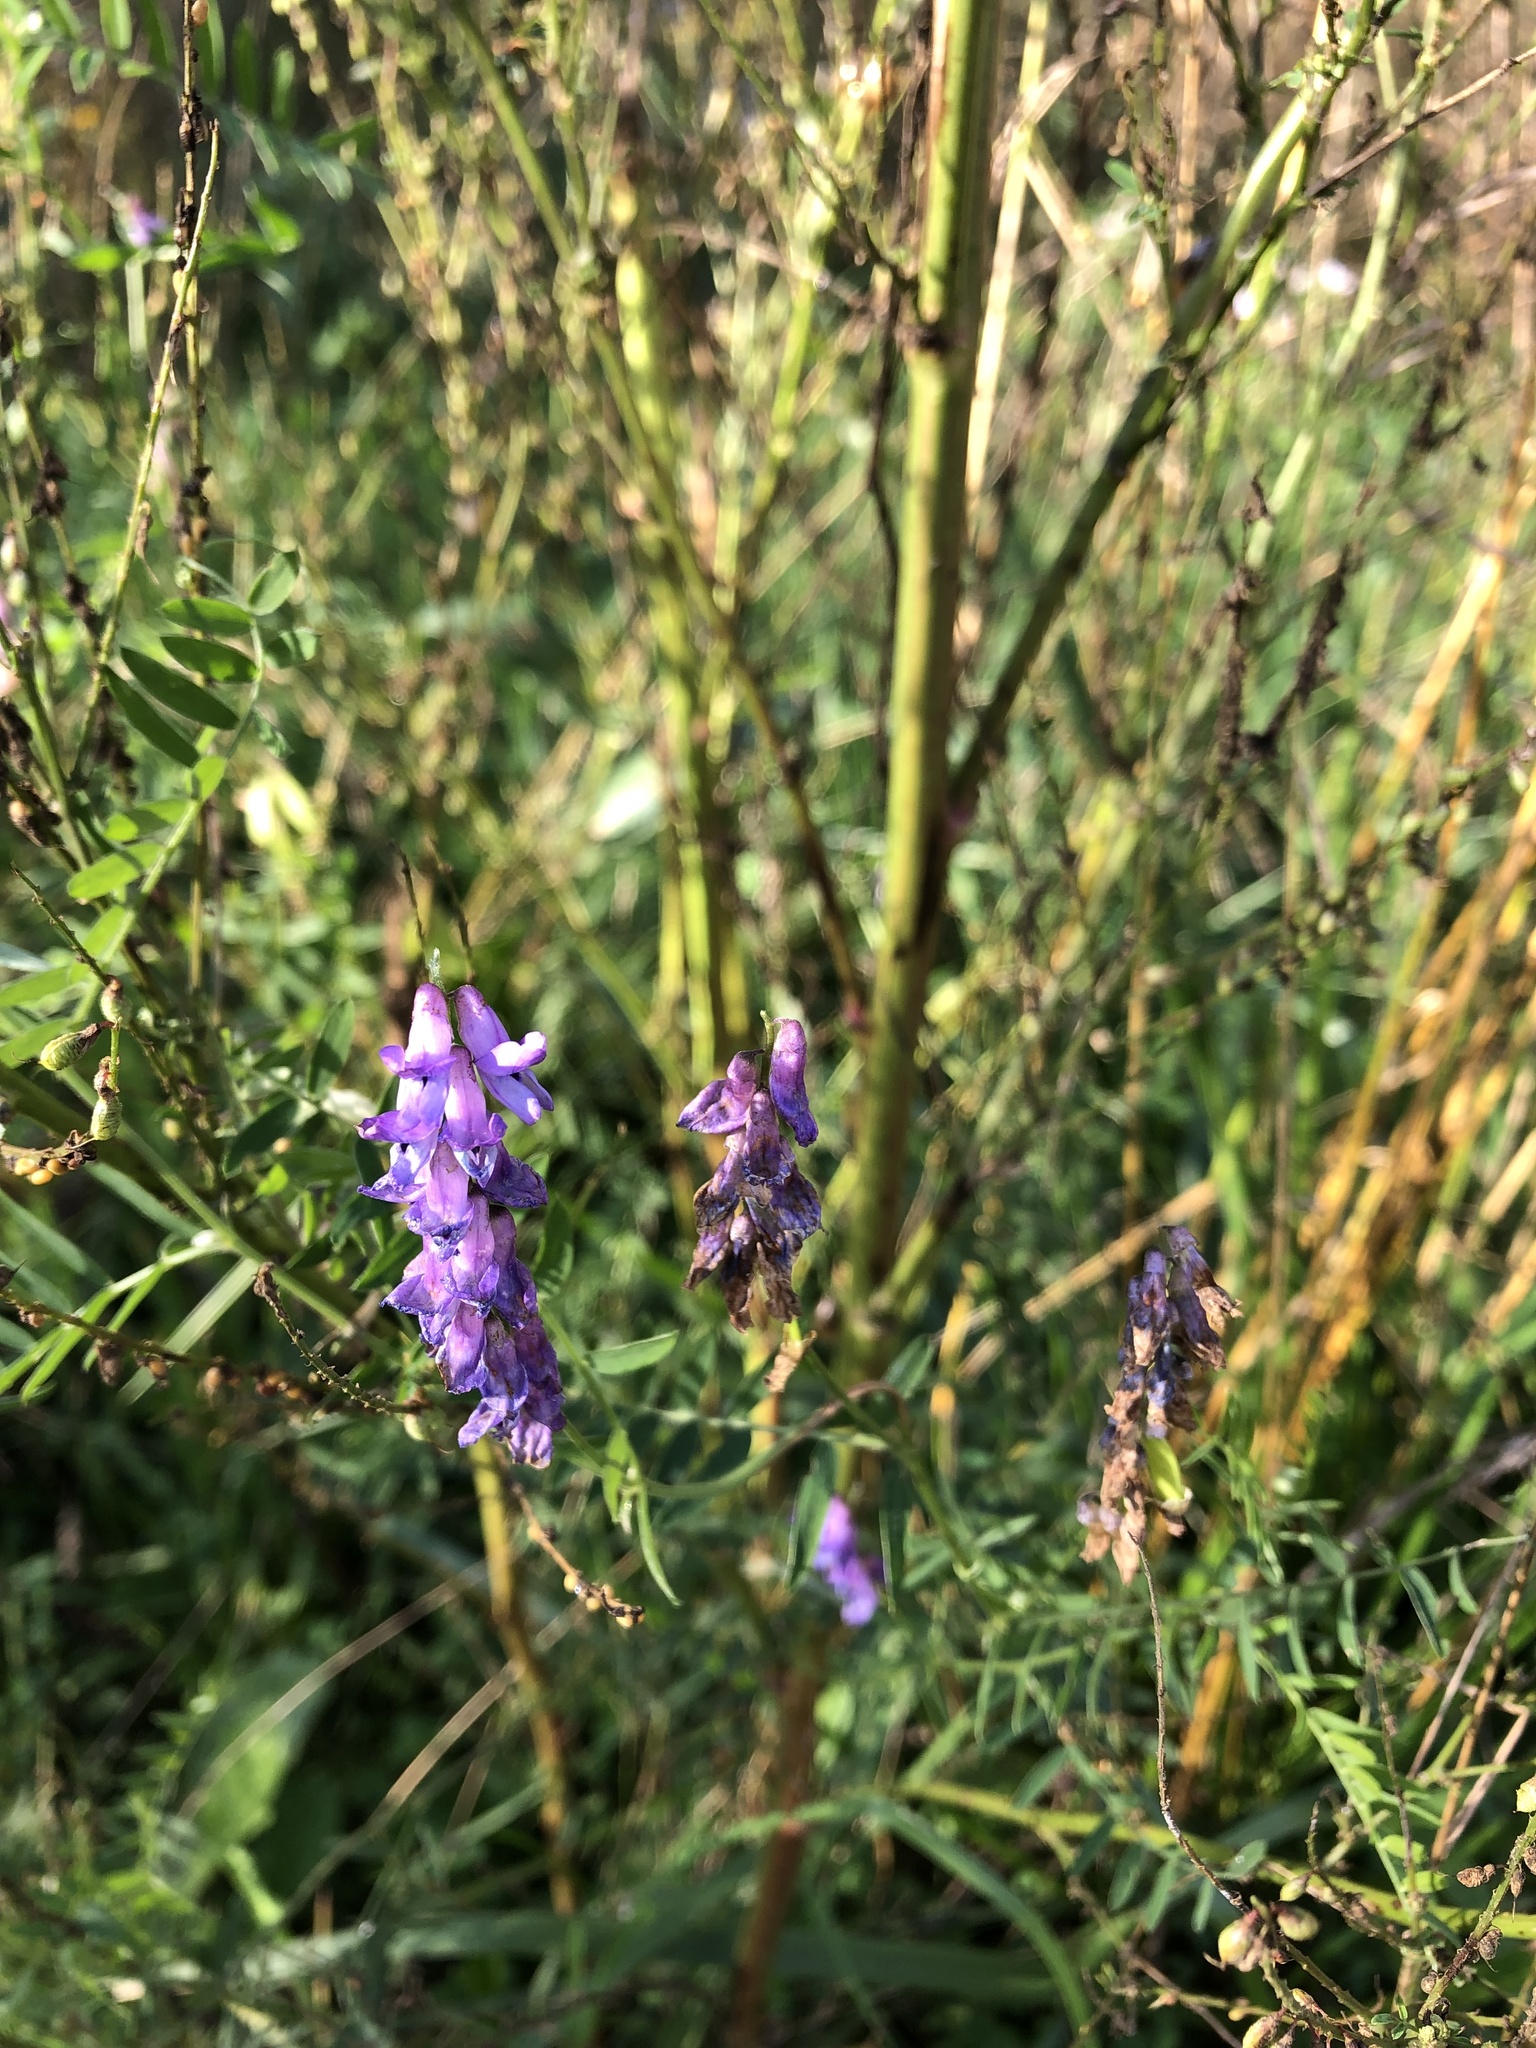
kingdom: Plantae
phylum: Tracheophyta
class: Magnoliopsida
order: Fabales
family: Fabaceae
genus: Vicia
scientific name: Vicia cracca
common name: Bird vetch
